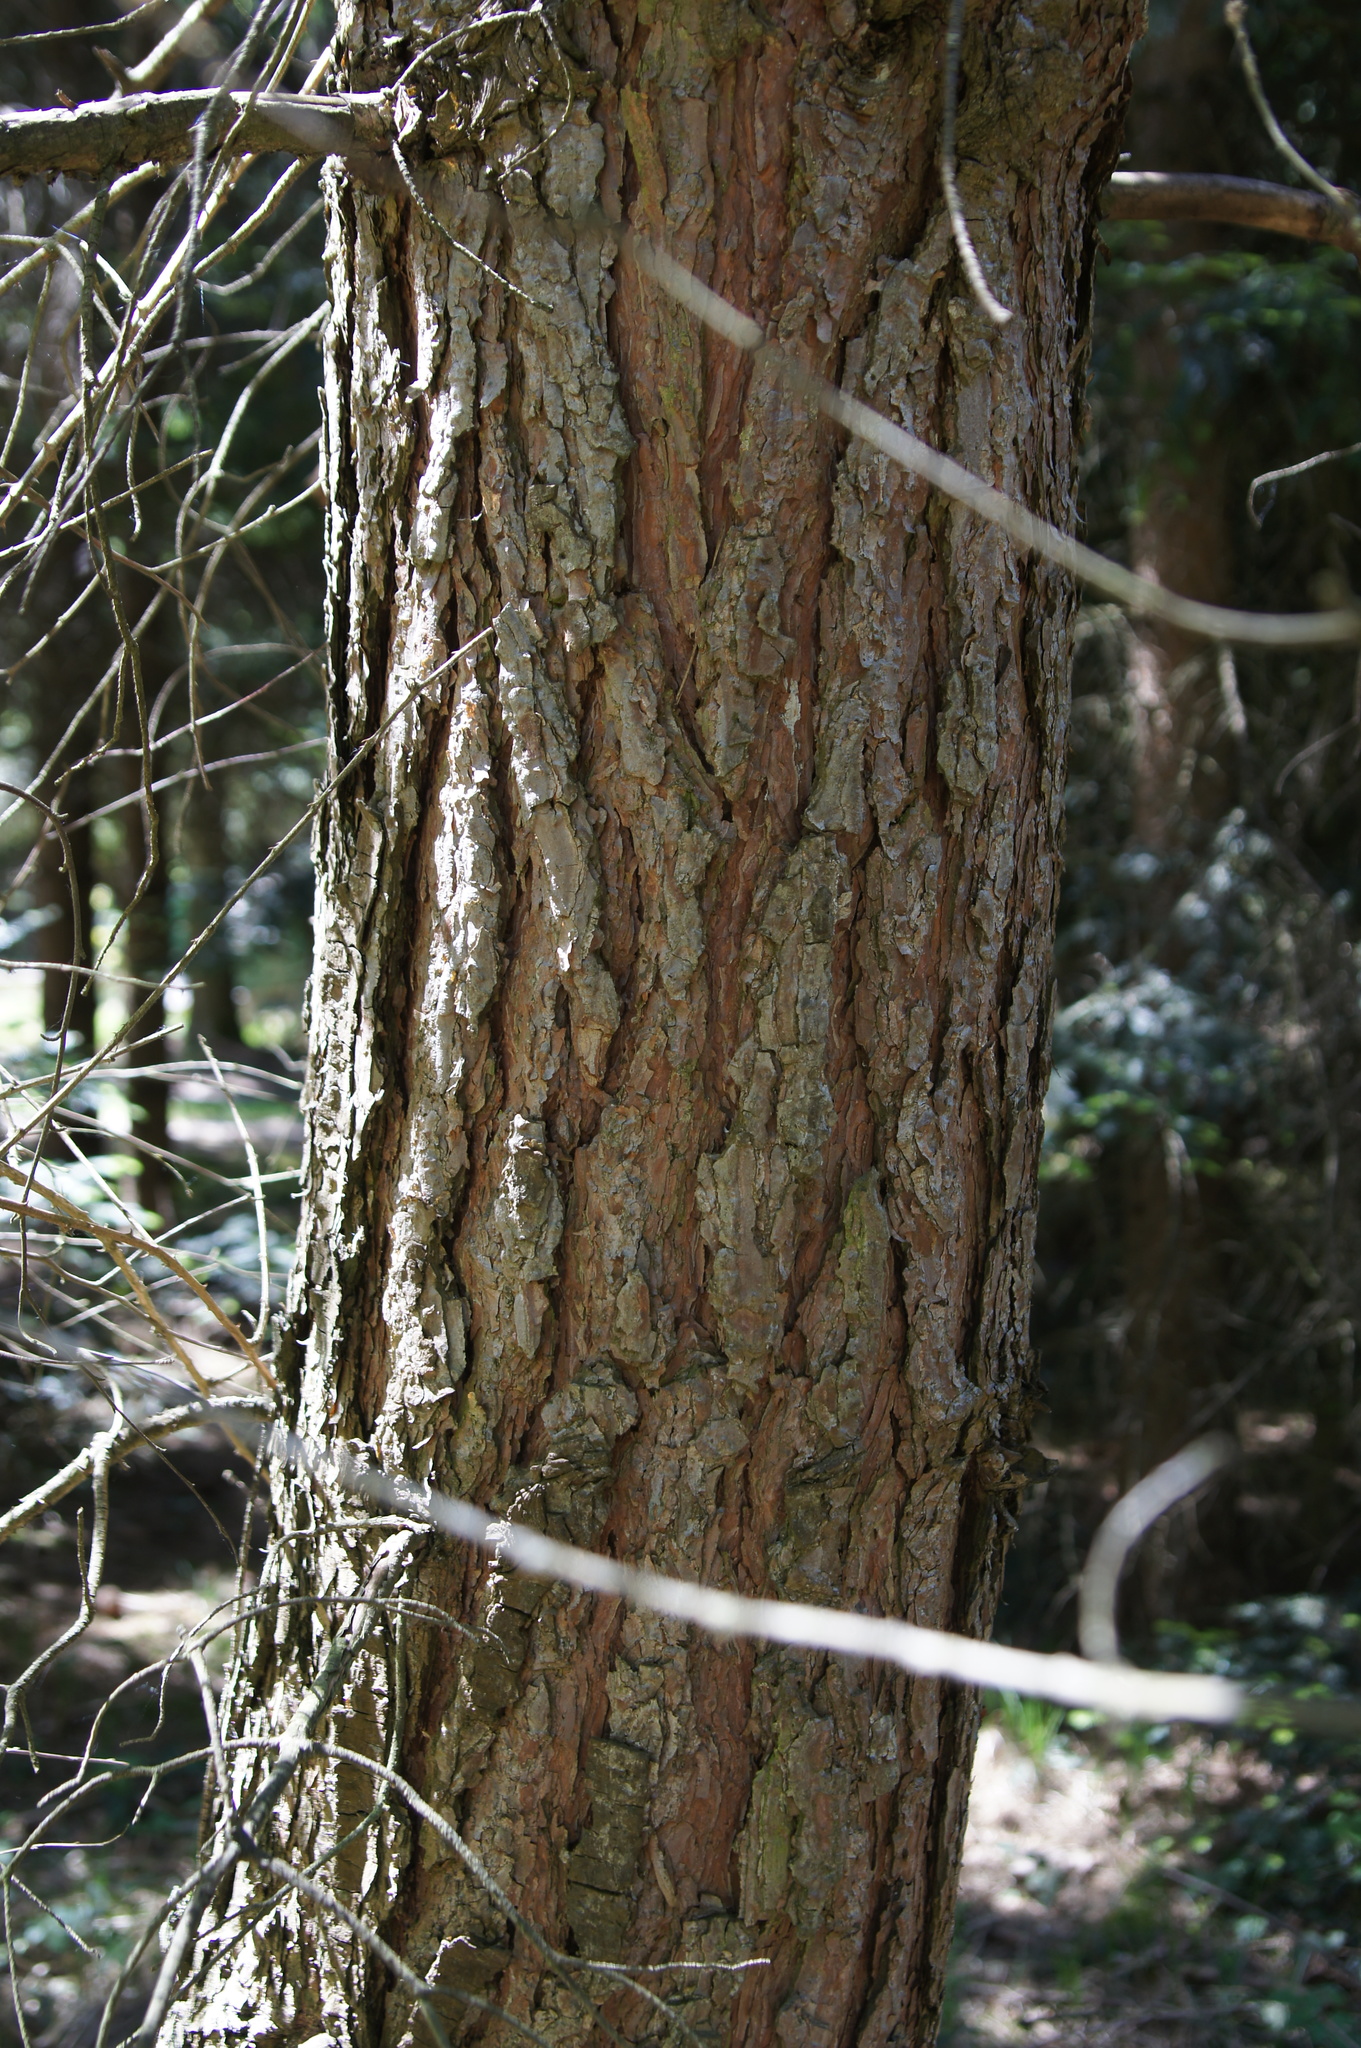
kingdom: Plantae
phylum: Tracheophyta
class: Pinopsida
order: Pinales
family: Pinaceae
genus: Pinus
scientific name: Pinus sylvestris
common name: Scots pine
